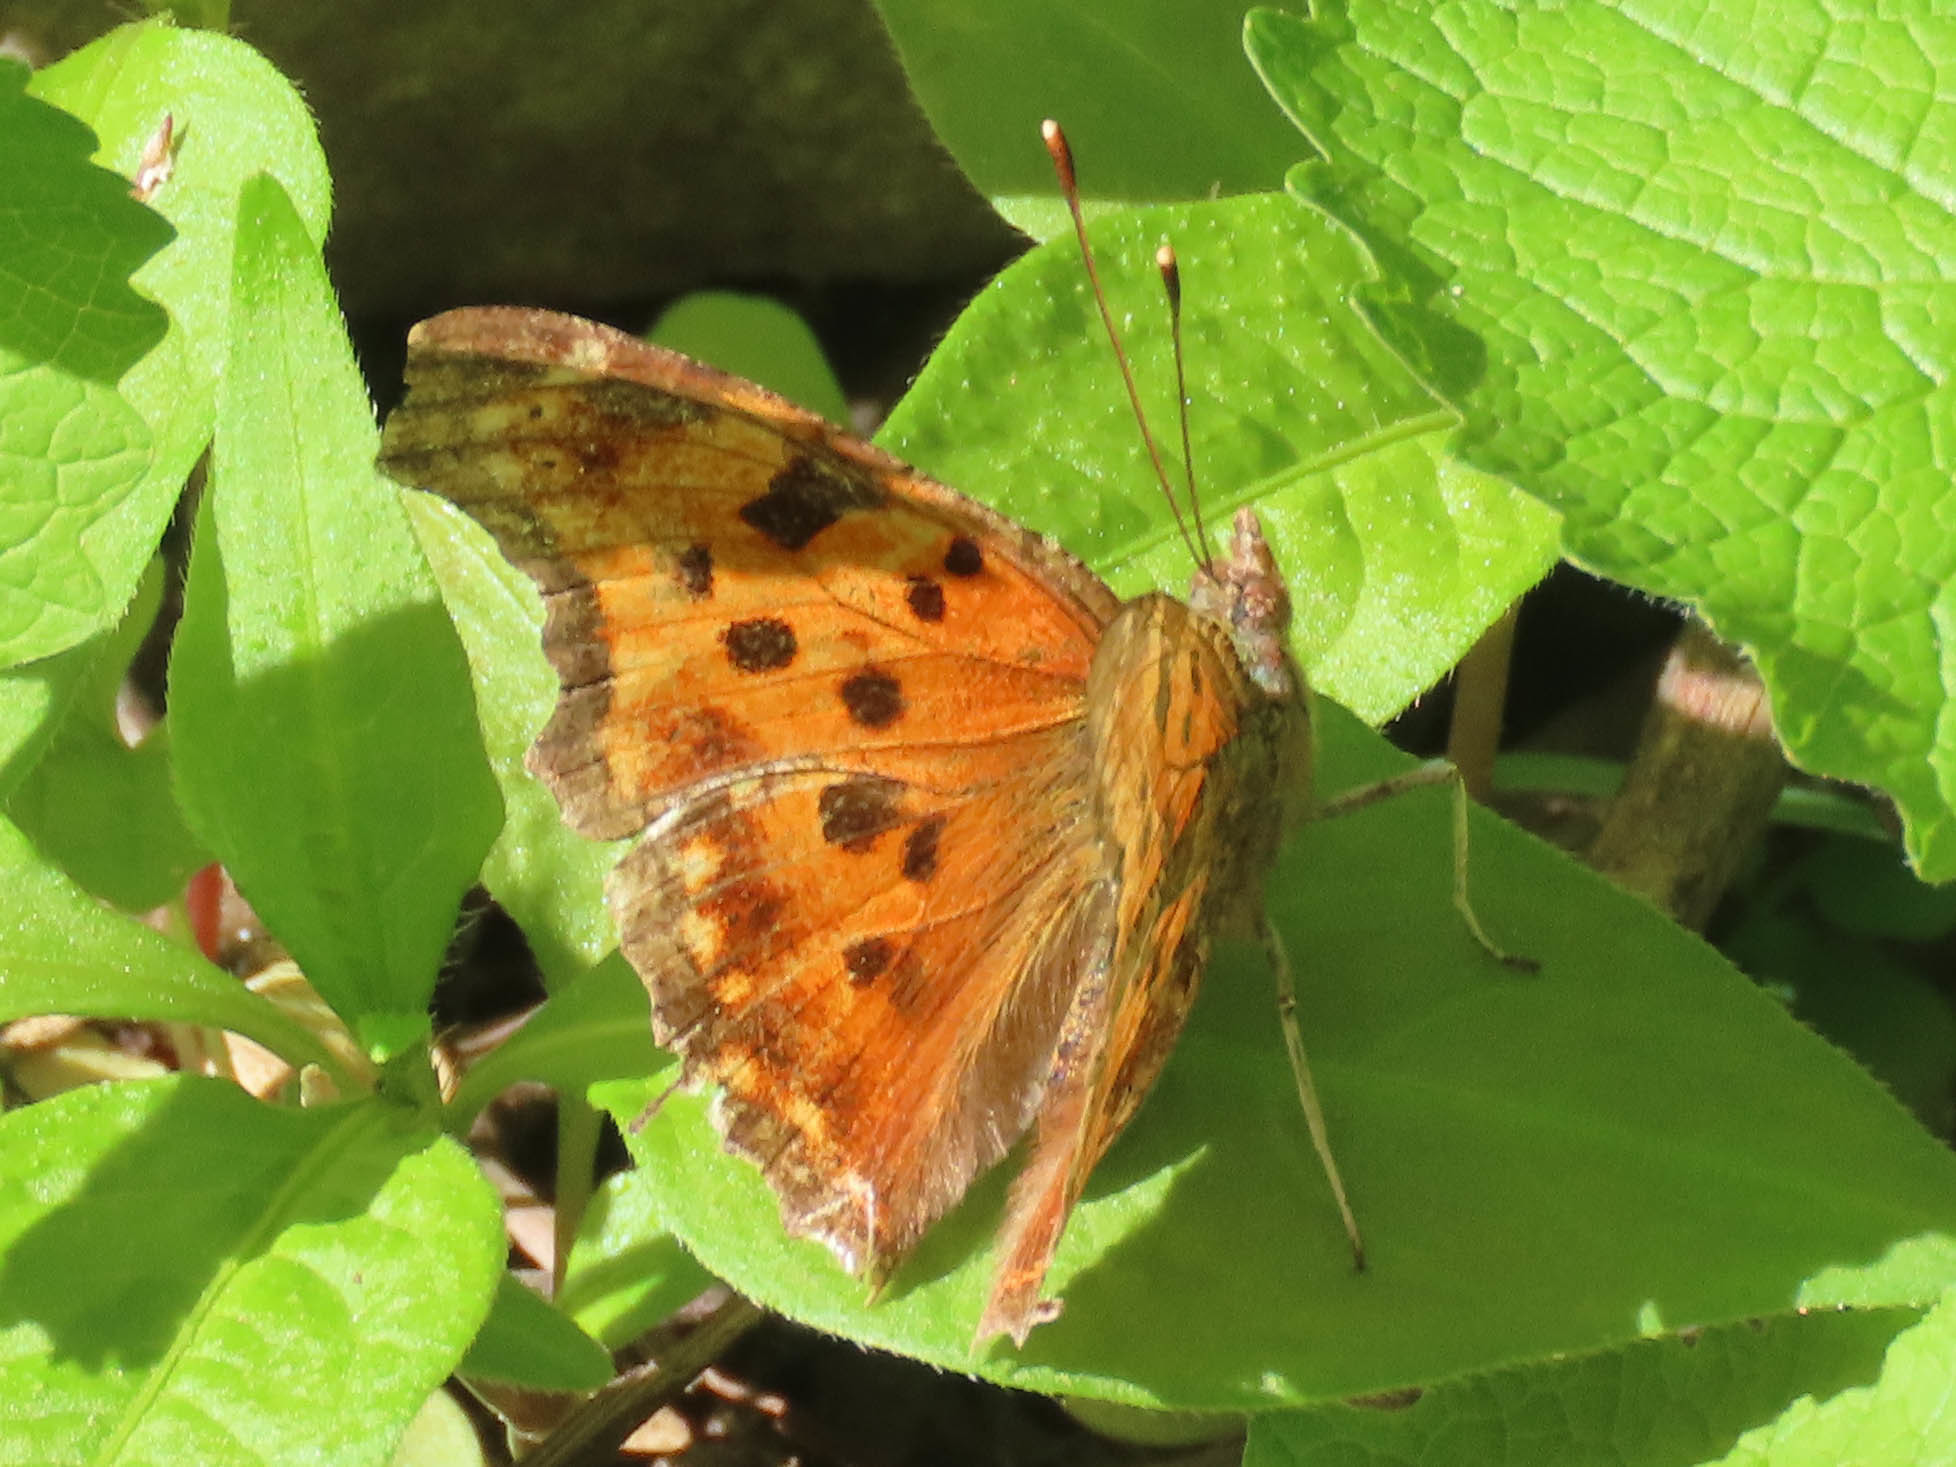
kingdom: Animalia
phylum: Arthropoda
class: Insecta
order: Lepidoptera
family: Nymphalidae
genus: Polygonia
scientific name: Polygonia comma
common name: Eastern comma
